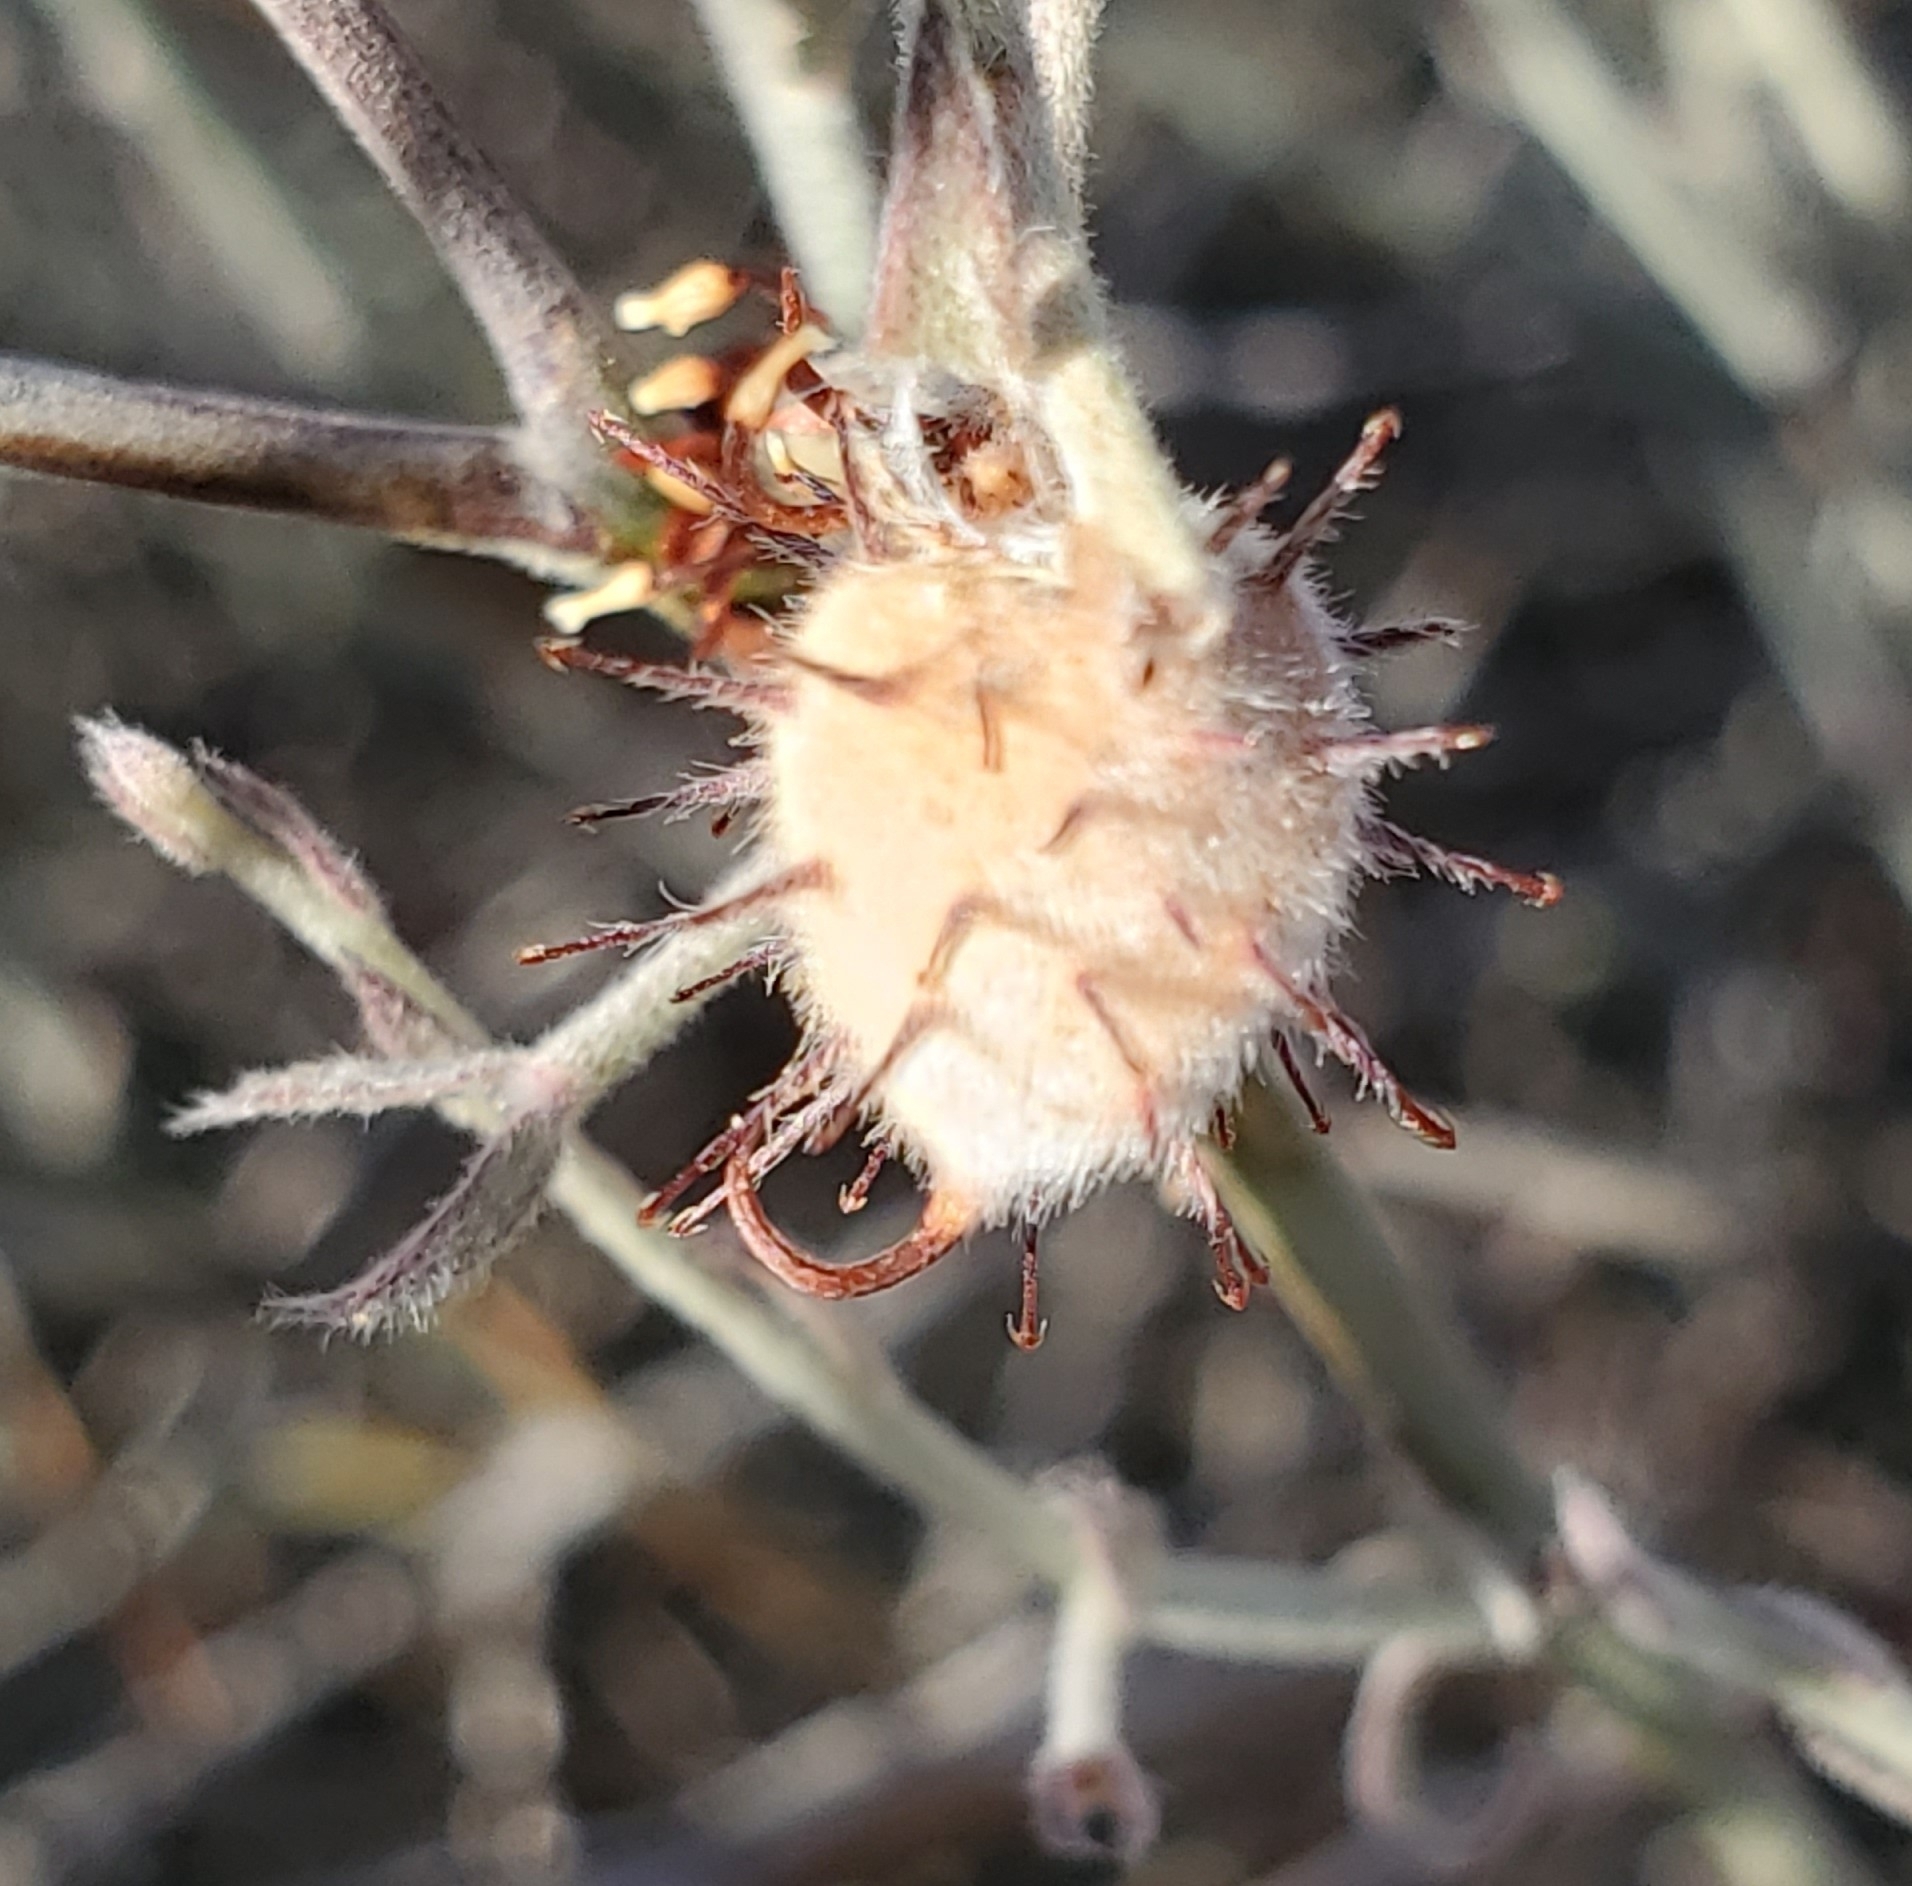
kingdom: Plantae
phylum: Tracheophyta
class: Magnoliopsida
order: Zygophyllales
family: Krameriaceae
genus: Krameria
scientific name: Krameria bicolor
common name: White ratany
